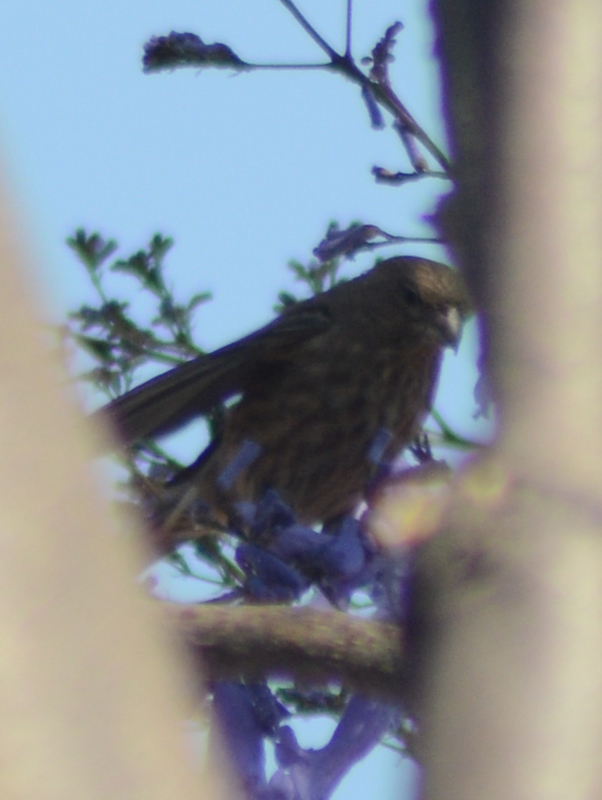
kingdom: Animalia
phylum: Chordata
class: Aves
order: Passeriformes
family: Fringillidae
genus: Haemorhous
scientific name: Haemorhous mexicanus
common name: House finch
